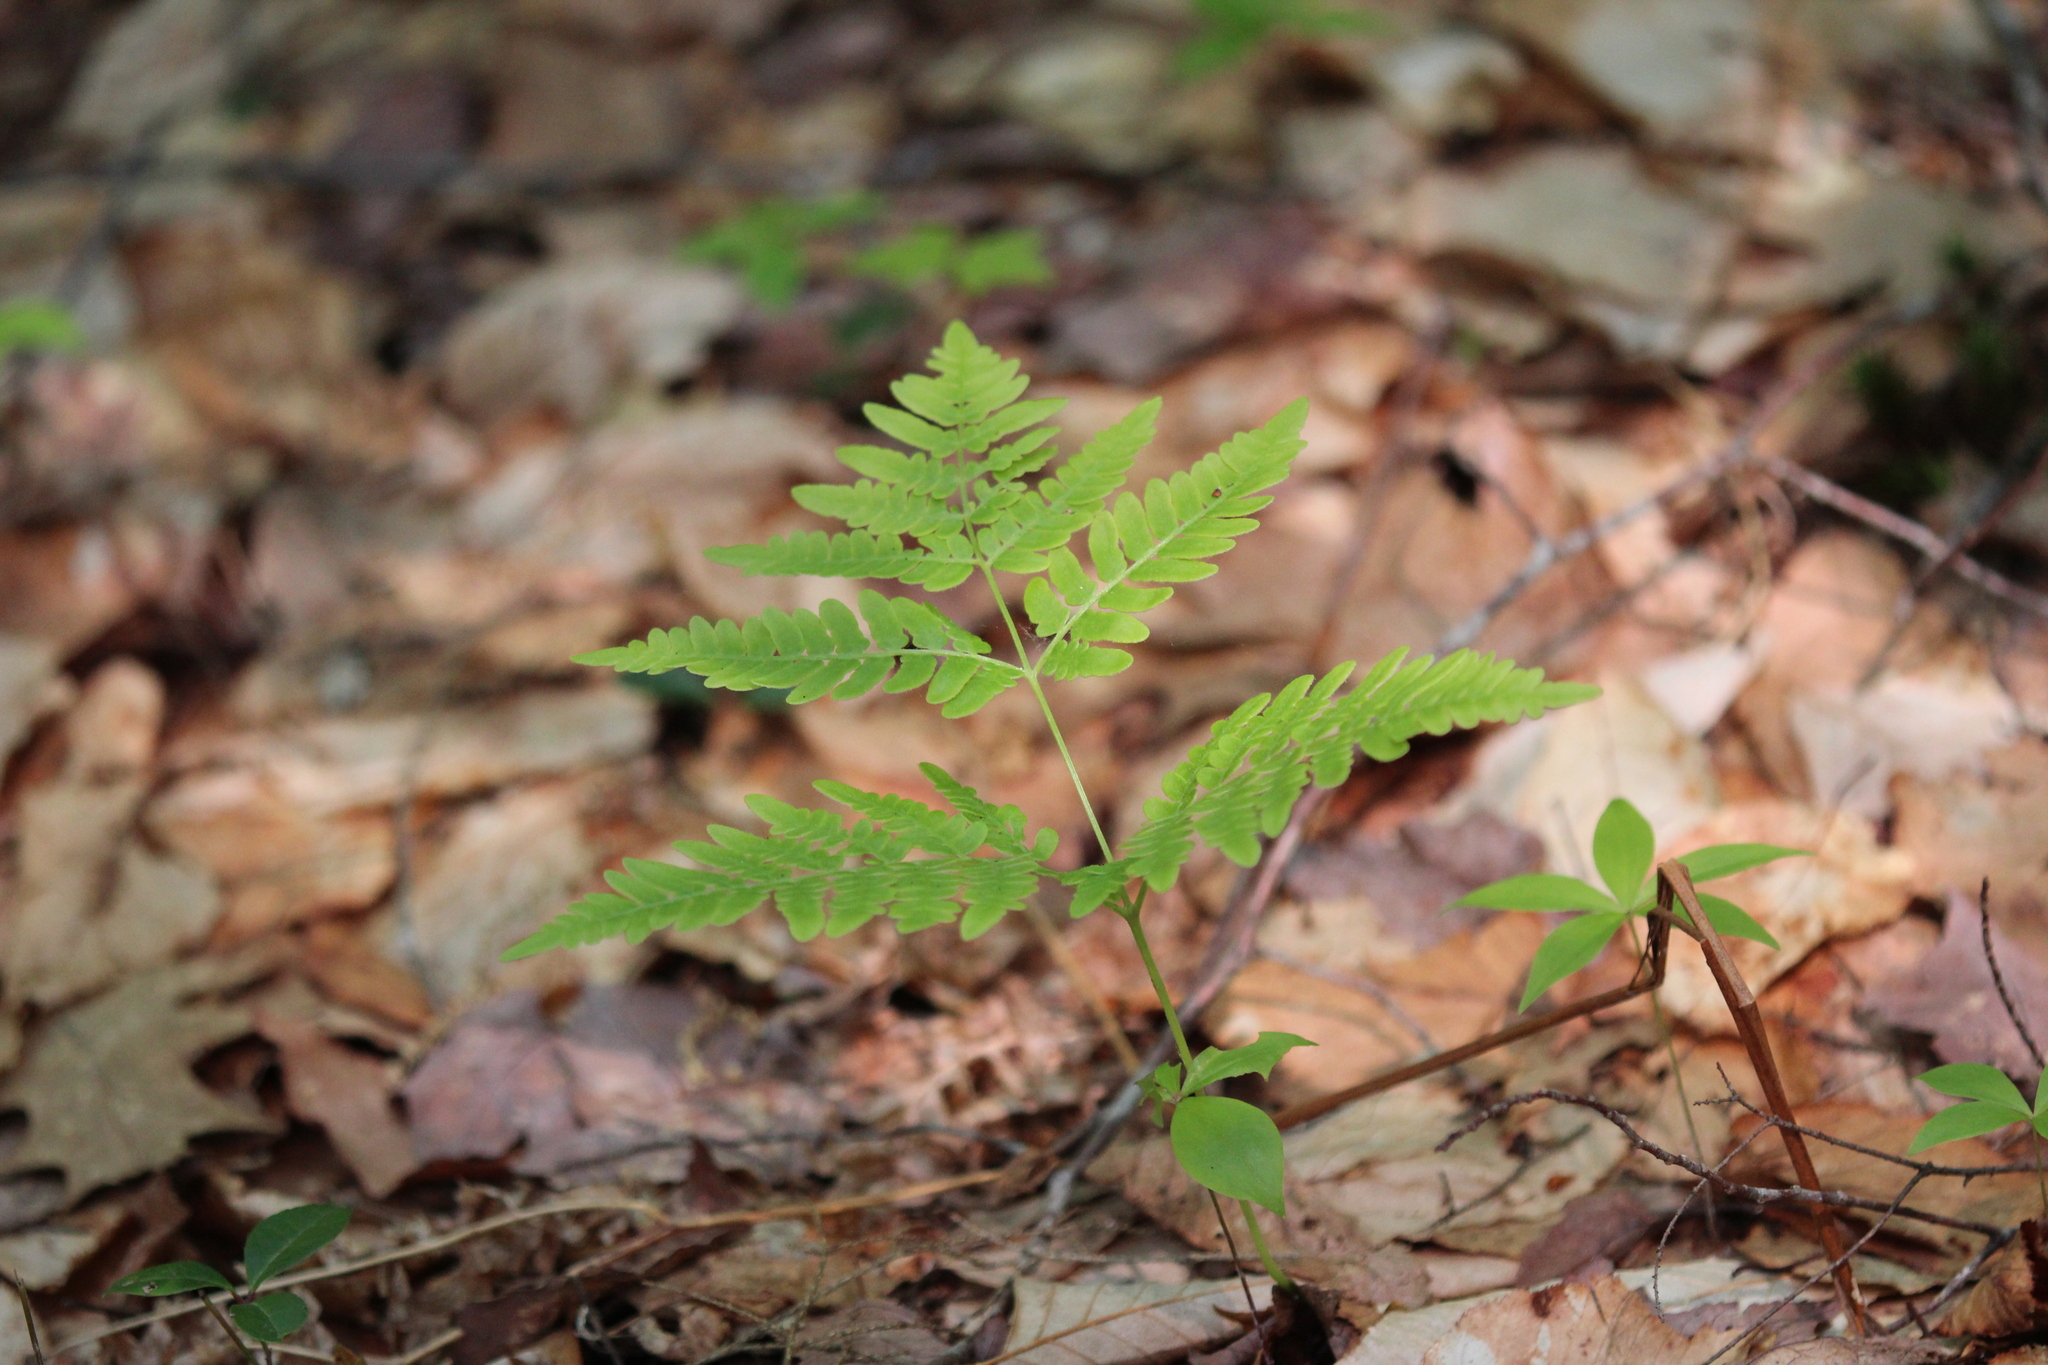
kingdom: Plantae
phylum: Tracheophyta
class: Polypodiopsida
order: Polypodiales
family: Dennstaedtiaceae
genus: Pteridium
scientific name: Pteridium aquilinum
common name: Bracken
